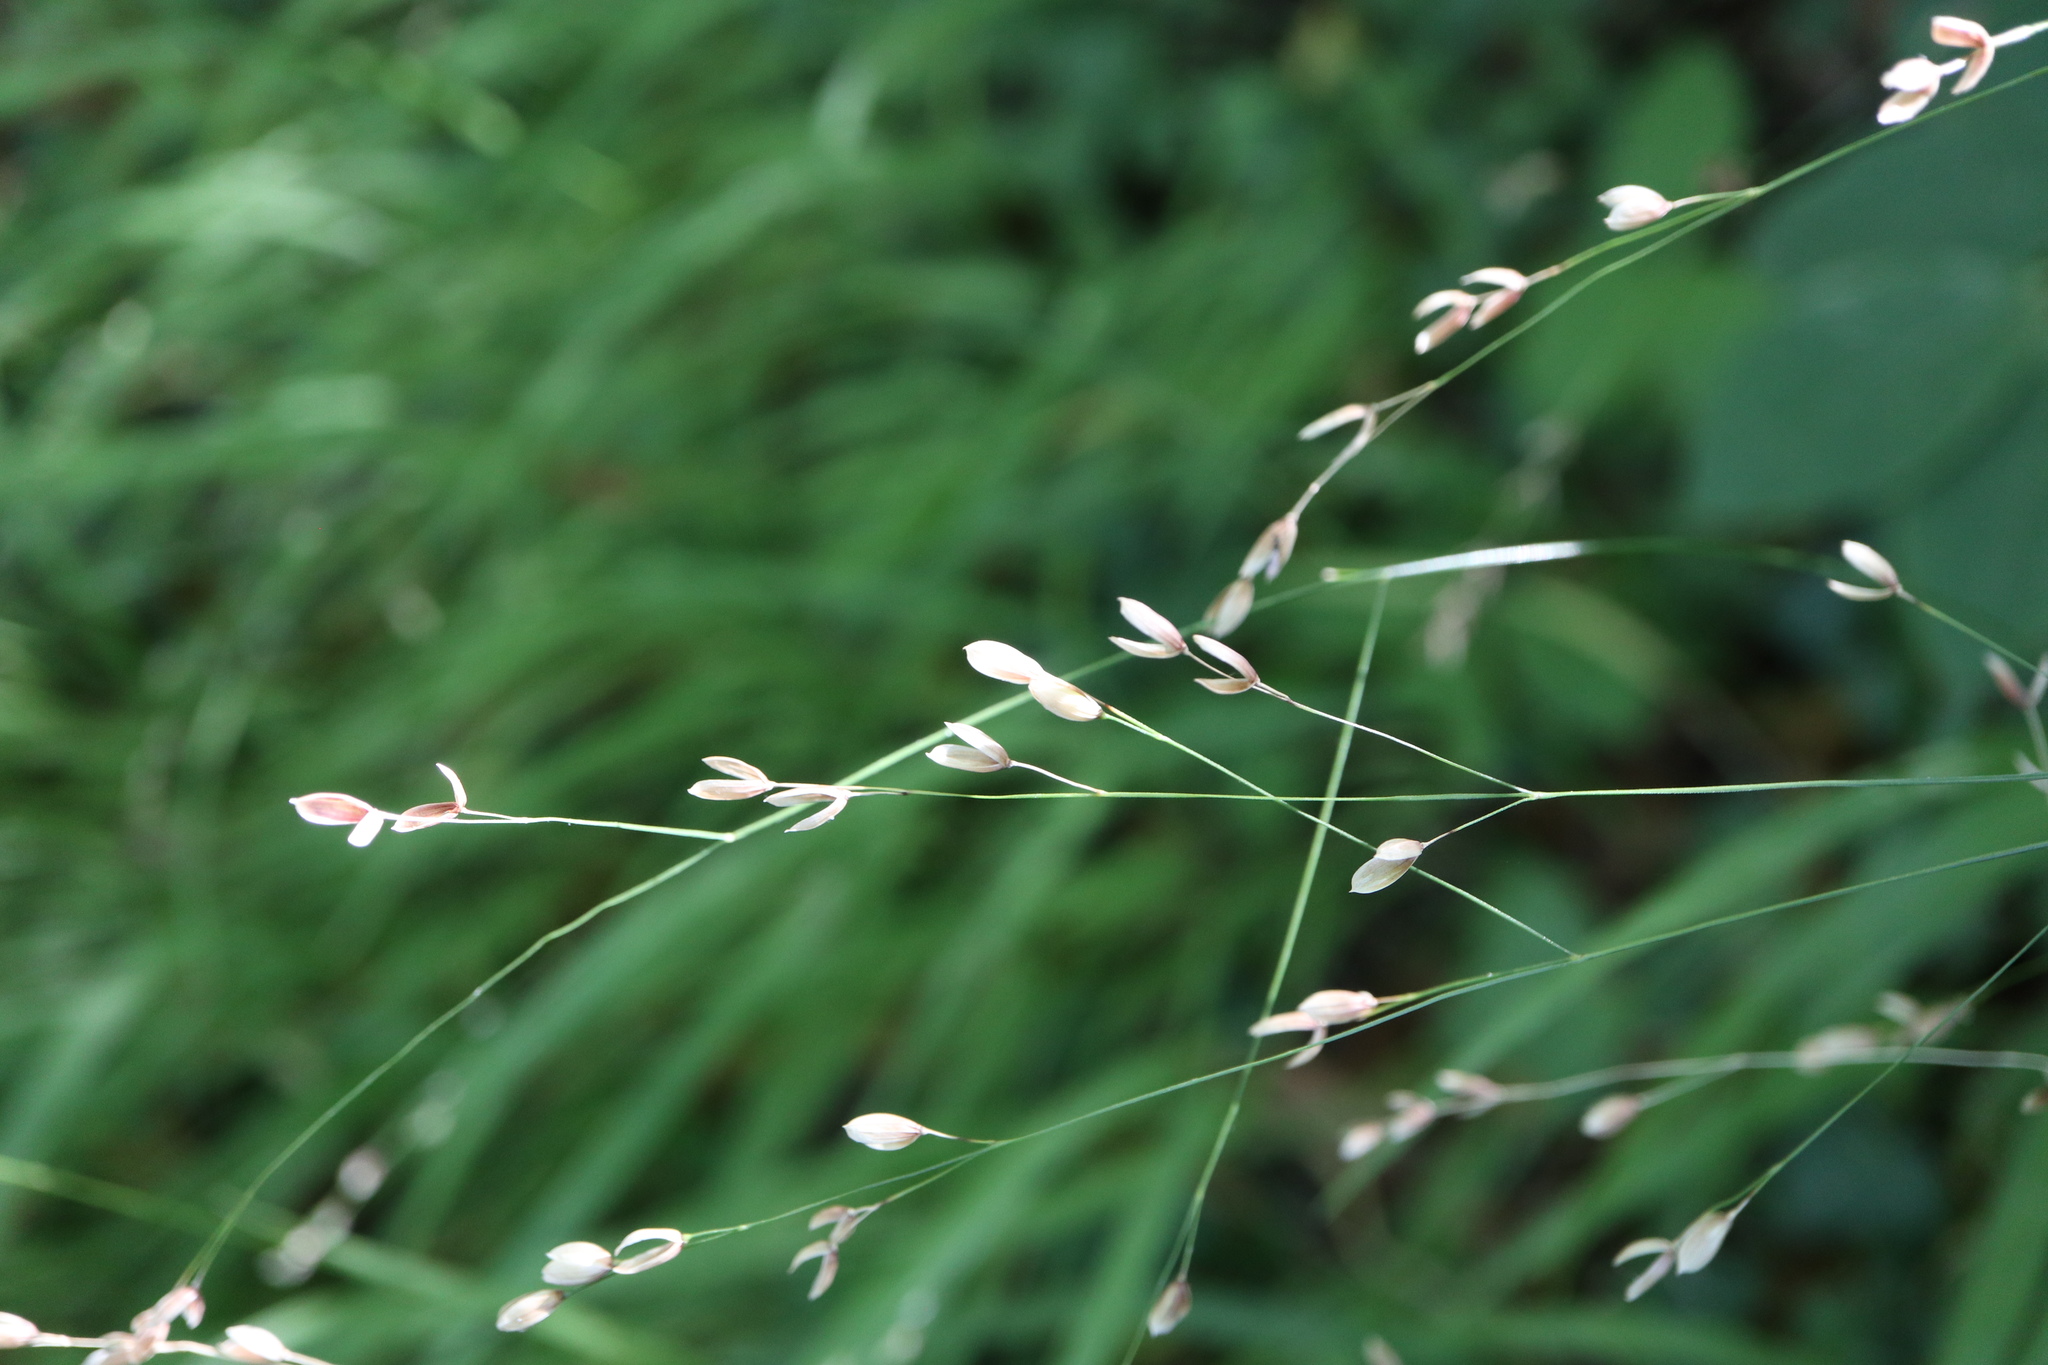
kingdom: Plantae
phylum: Tracheophyta
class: Liliopsida
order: Poales
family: Poaceae
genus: Melica
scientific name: Melica uniflora
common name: Wood melick
